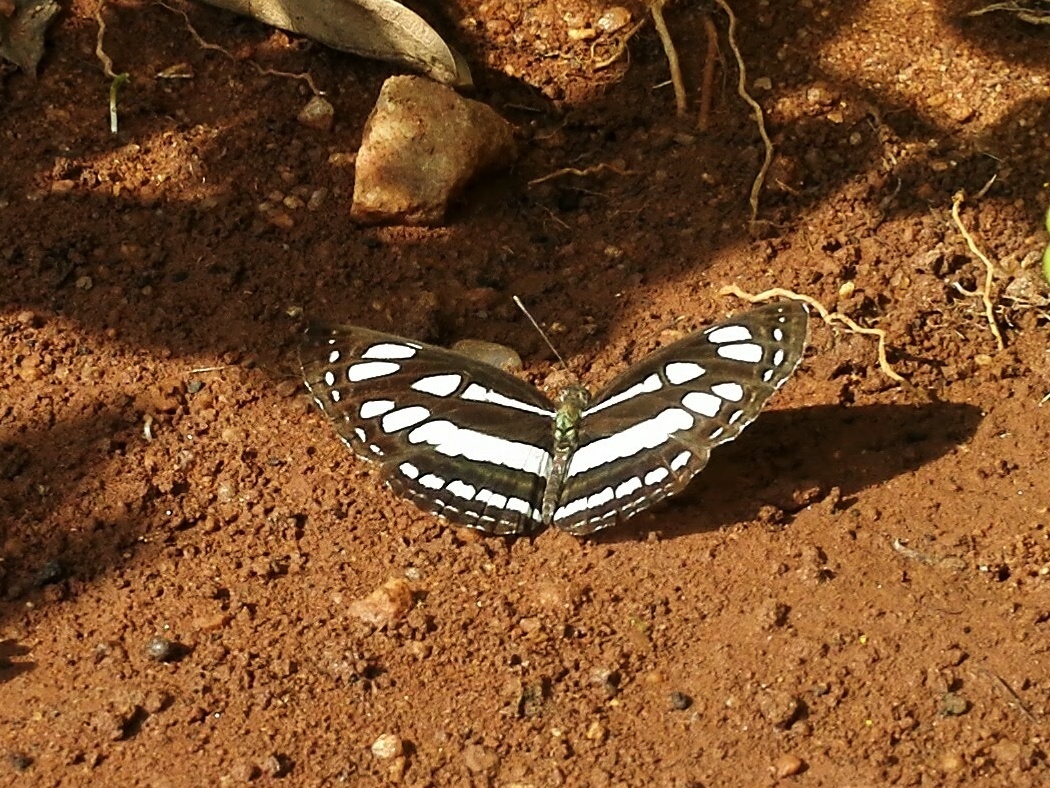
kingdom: Animalia
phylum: Arthropoda
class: Insecta
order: Lepidoptera
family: Nymphalidae
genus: Neptis
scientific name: Neptis hylas
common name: Common sailer
